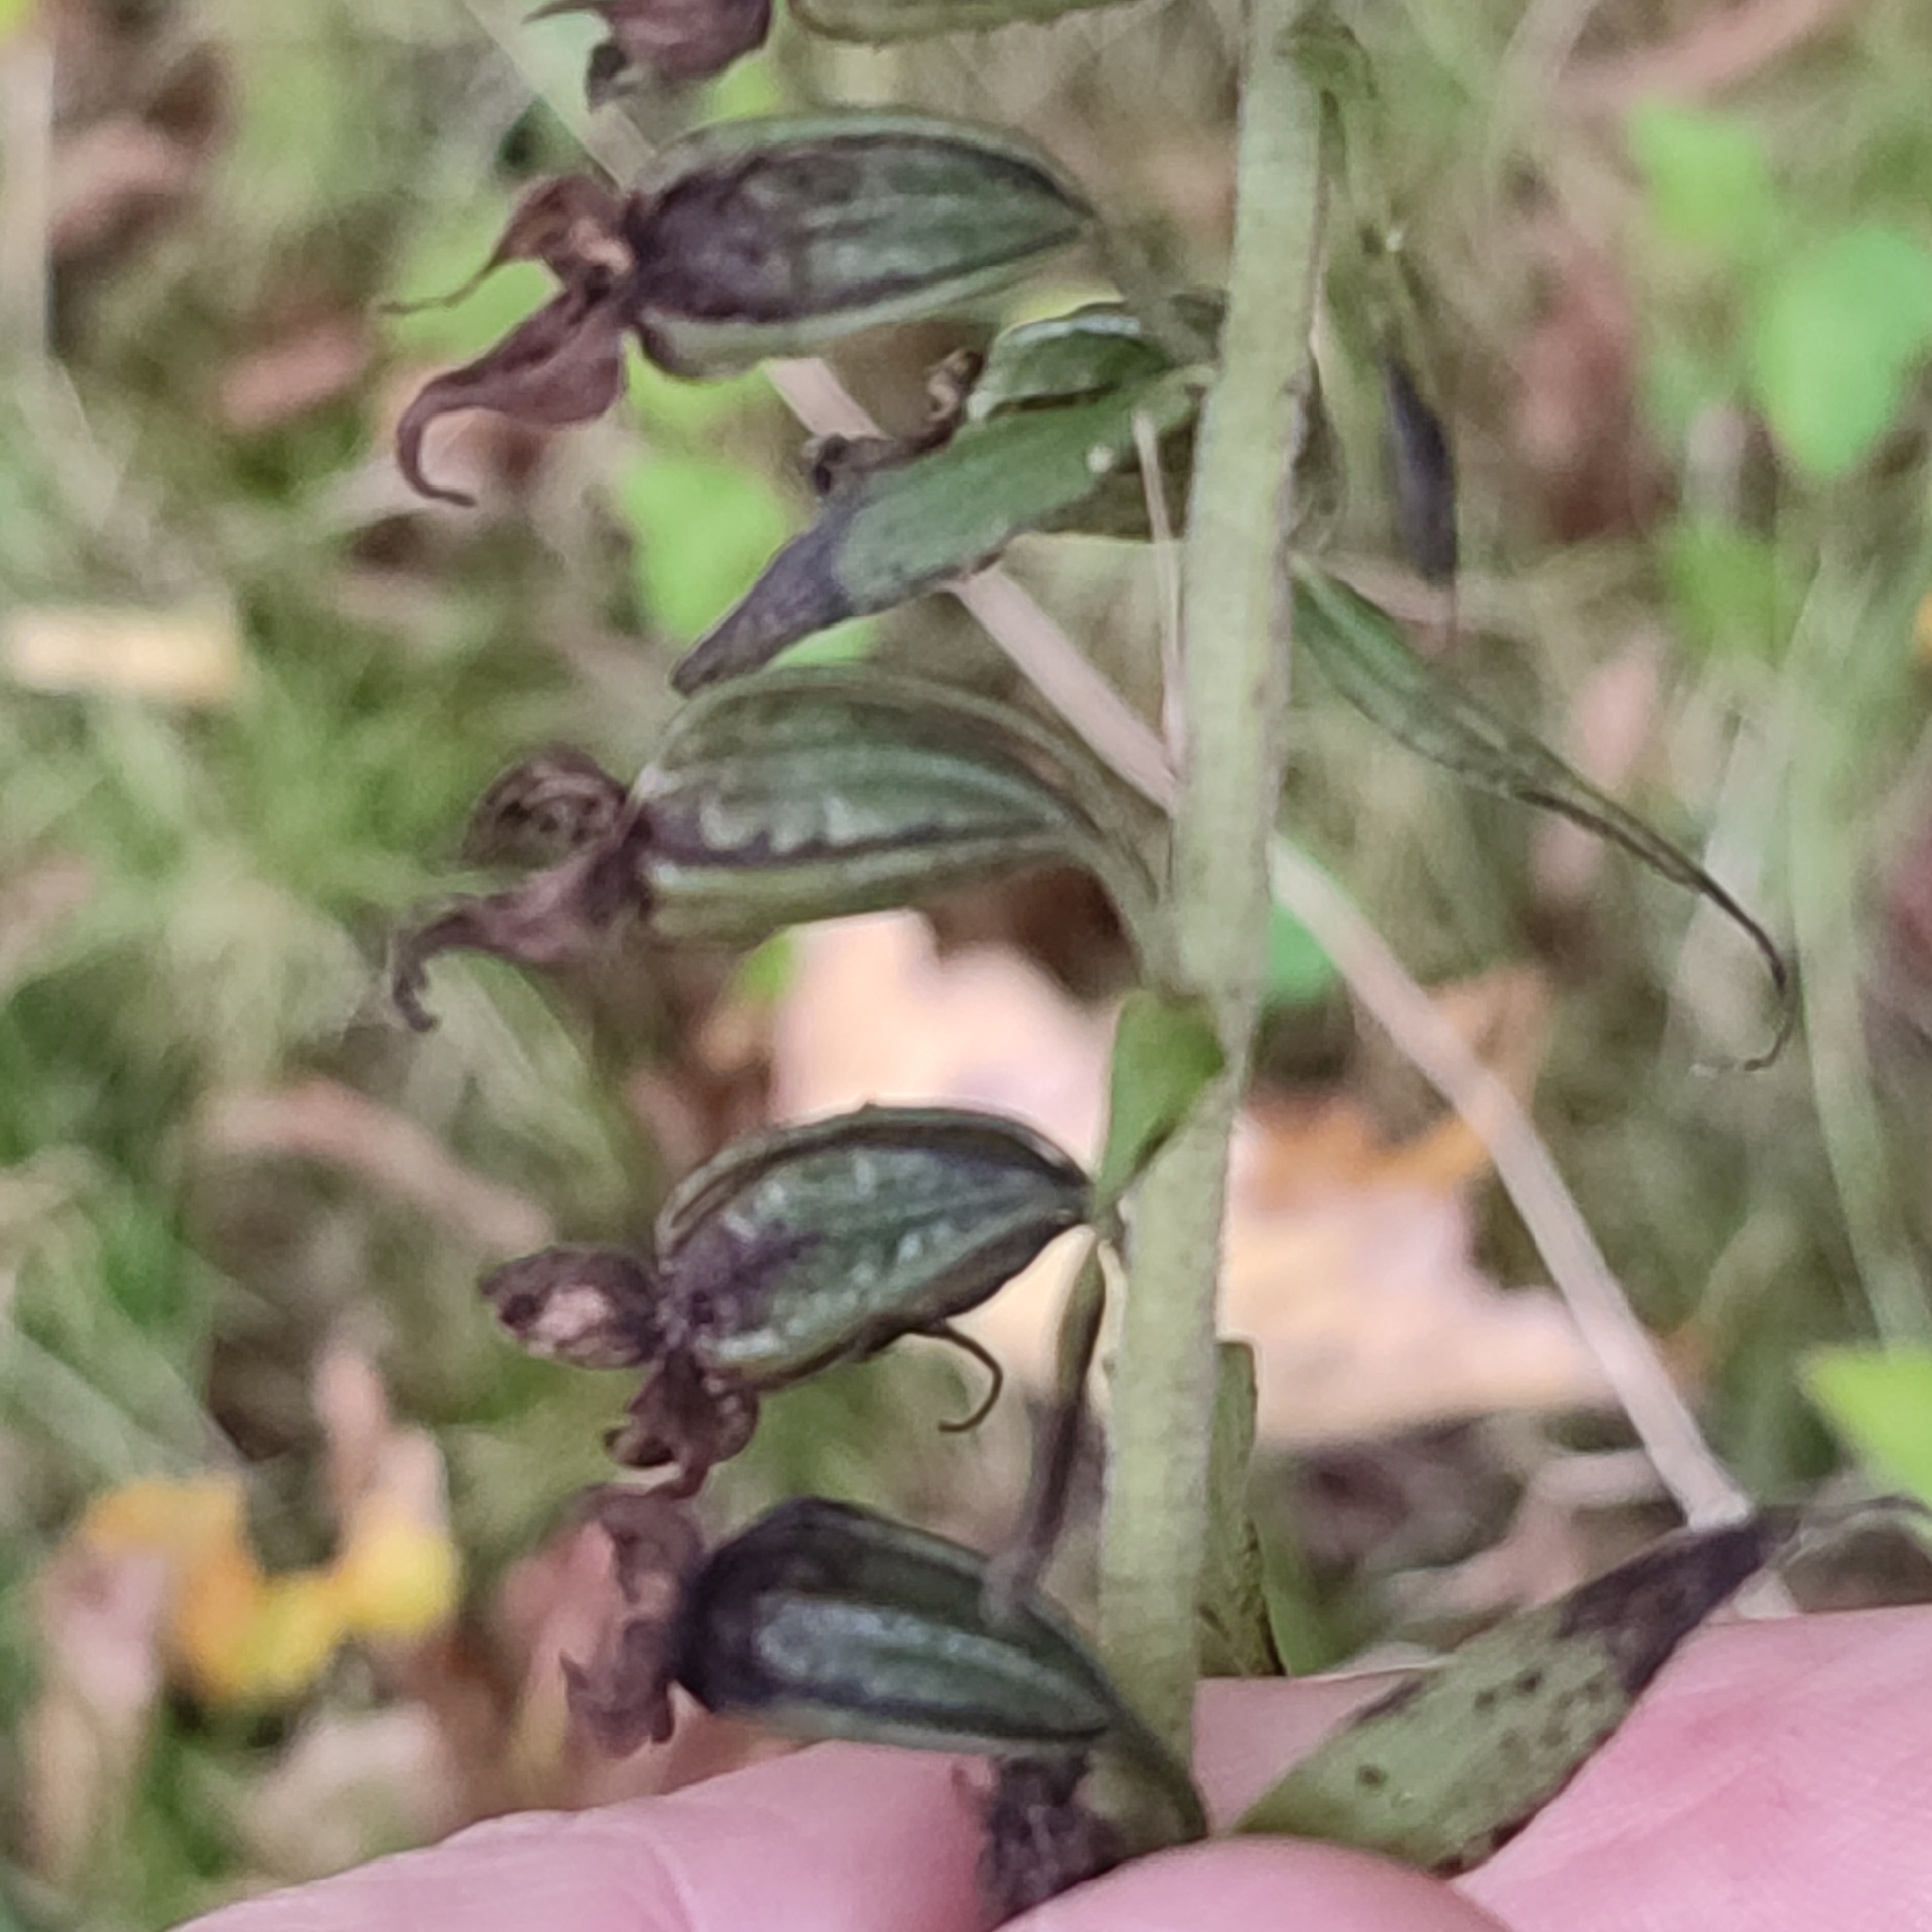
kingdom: Plantae
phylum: Tracheophyta
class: Liliopsida
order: Asparagales
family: Orchidaceae
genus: Epipactis
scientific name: Epipactis helleborine
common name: Broad-leaved helleborine
